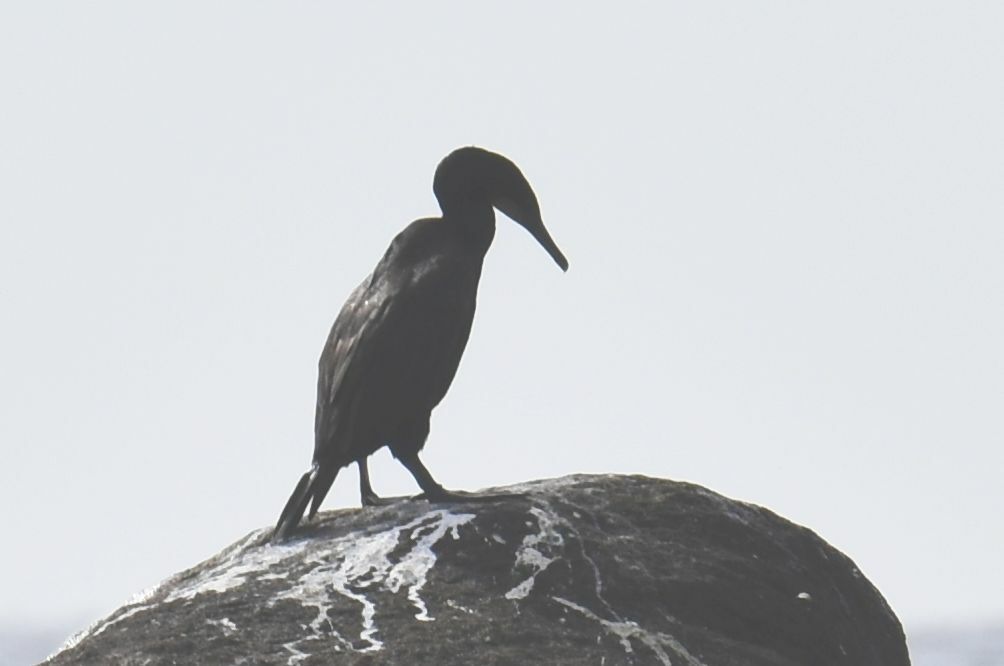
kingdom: Animalia
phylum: Chordata
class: Aves
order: Suliformes
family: Phalacrocoracidae
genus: Urile
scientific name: Urile penicillatus
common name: Brandt's cormorant
